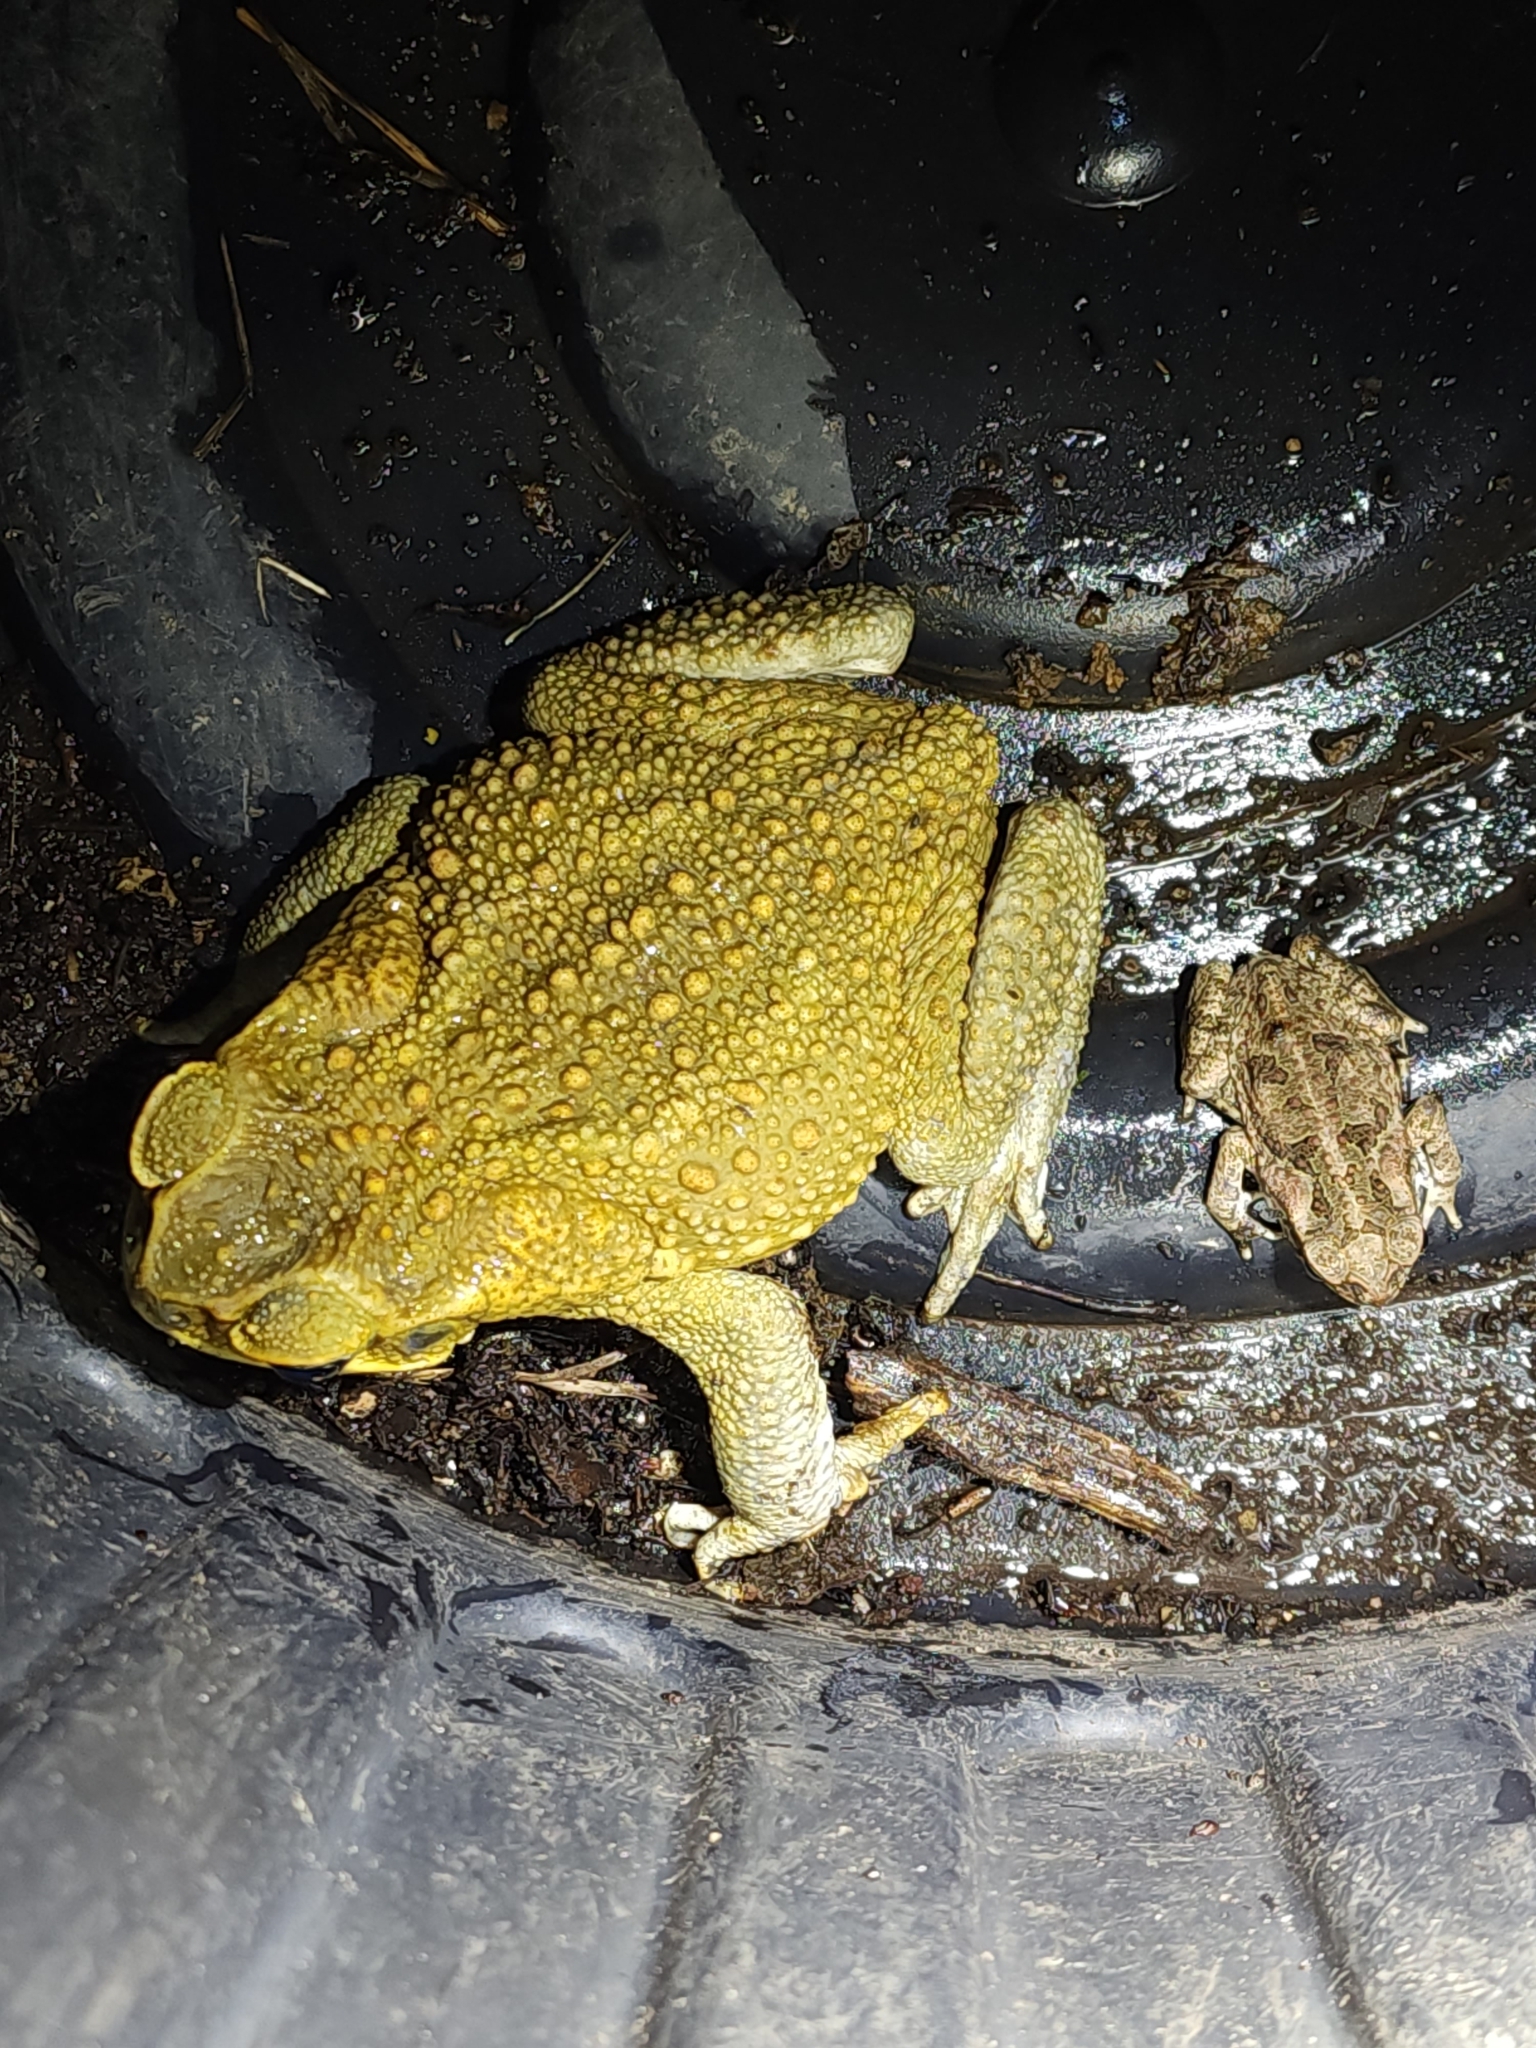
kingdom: Animalia
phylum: Chordata
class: Amphibia
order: Anura
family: Bufonidae
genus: Rhinella
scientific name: Rhinella marina
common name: Cane toad
